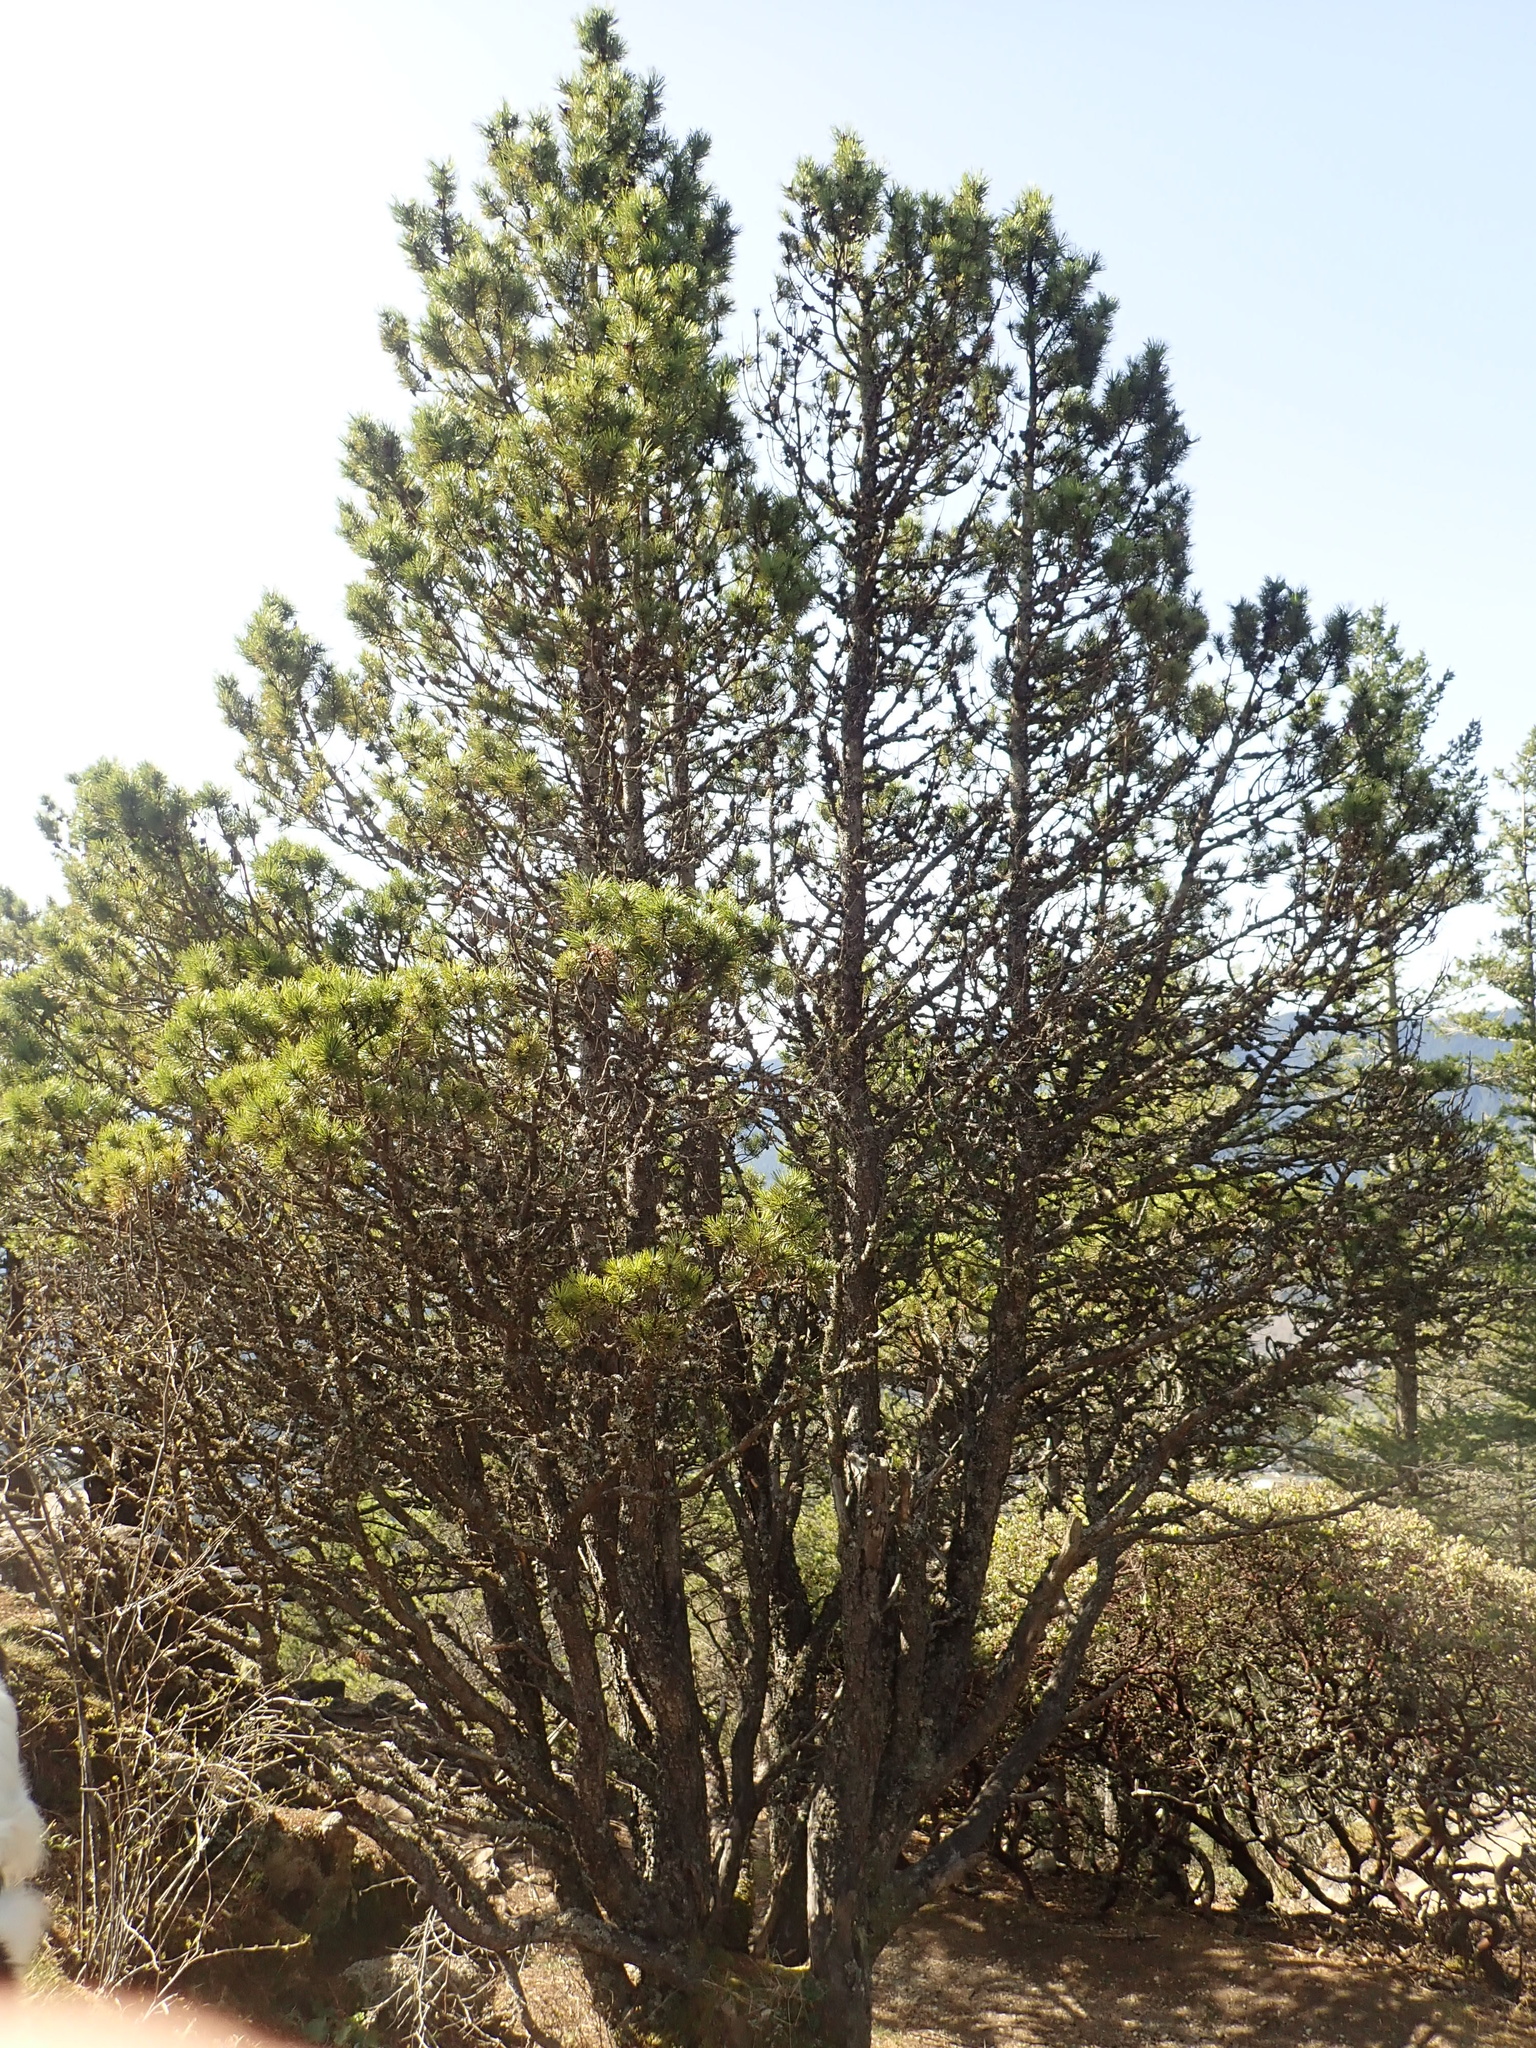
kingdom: Plantae
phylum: Tracheophyta
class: Pinopsida
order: Pinales
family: Pinaceae
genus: Pinus
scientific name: Pinus contorta
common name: Lodgepole pine
